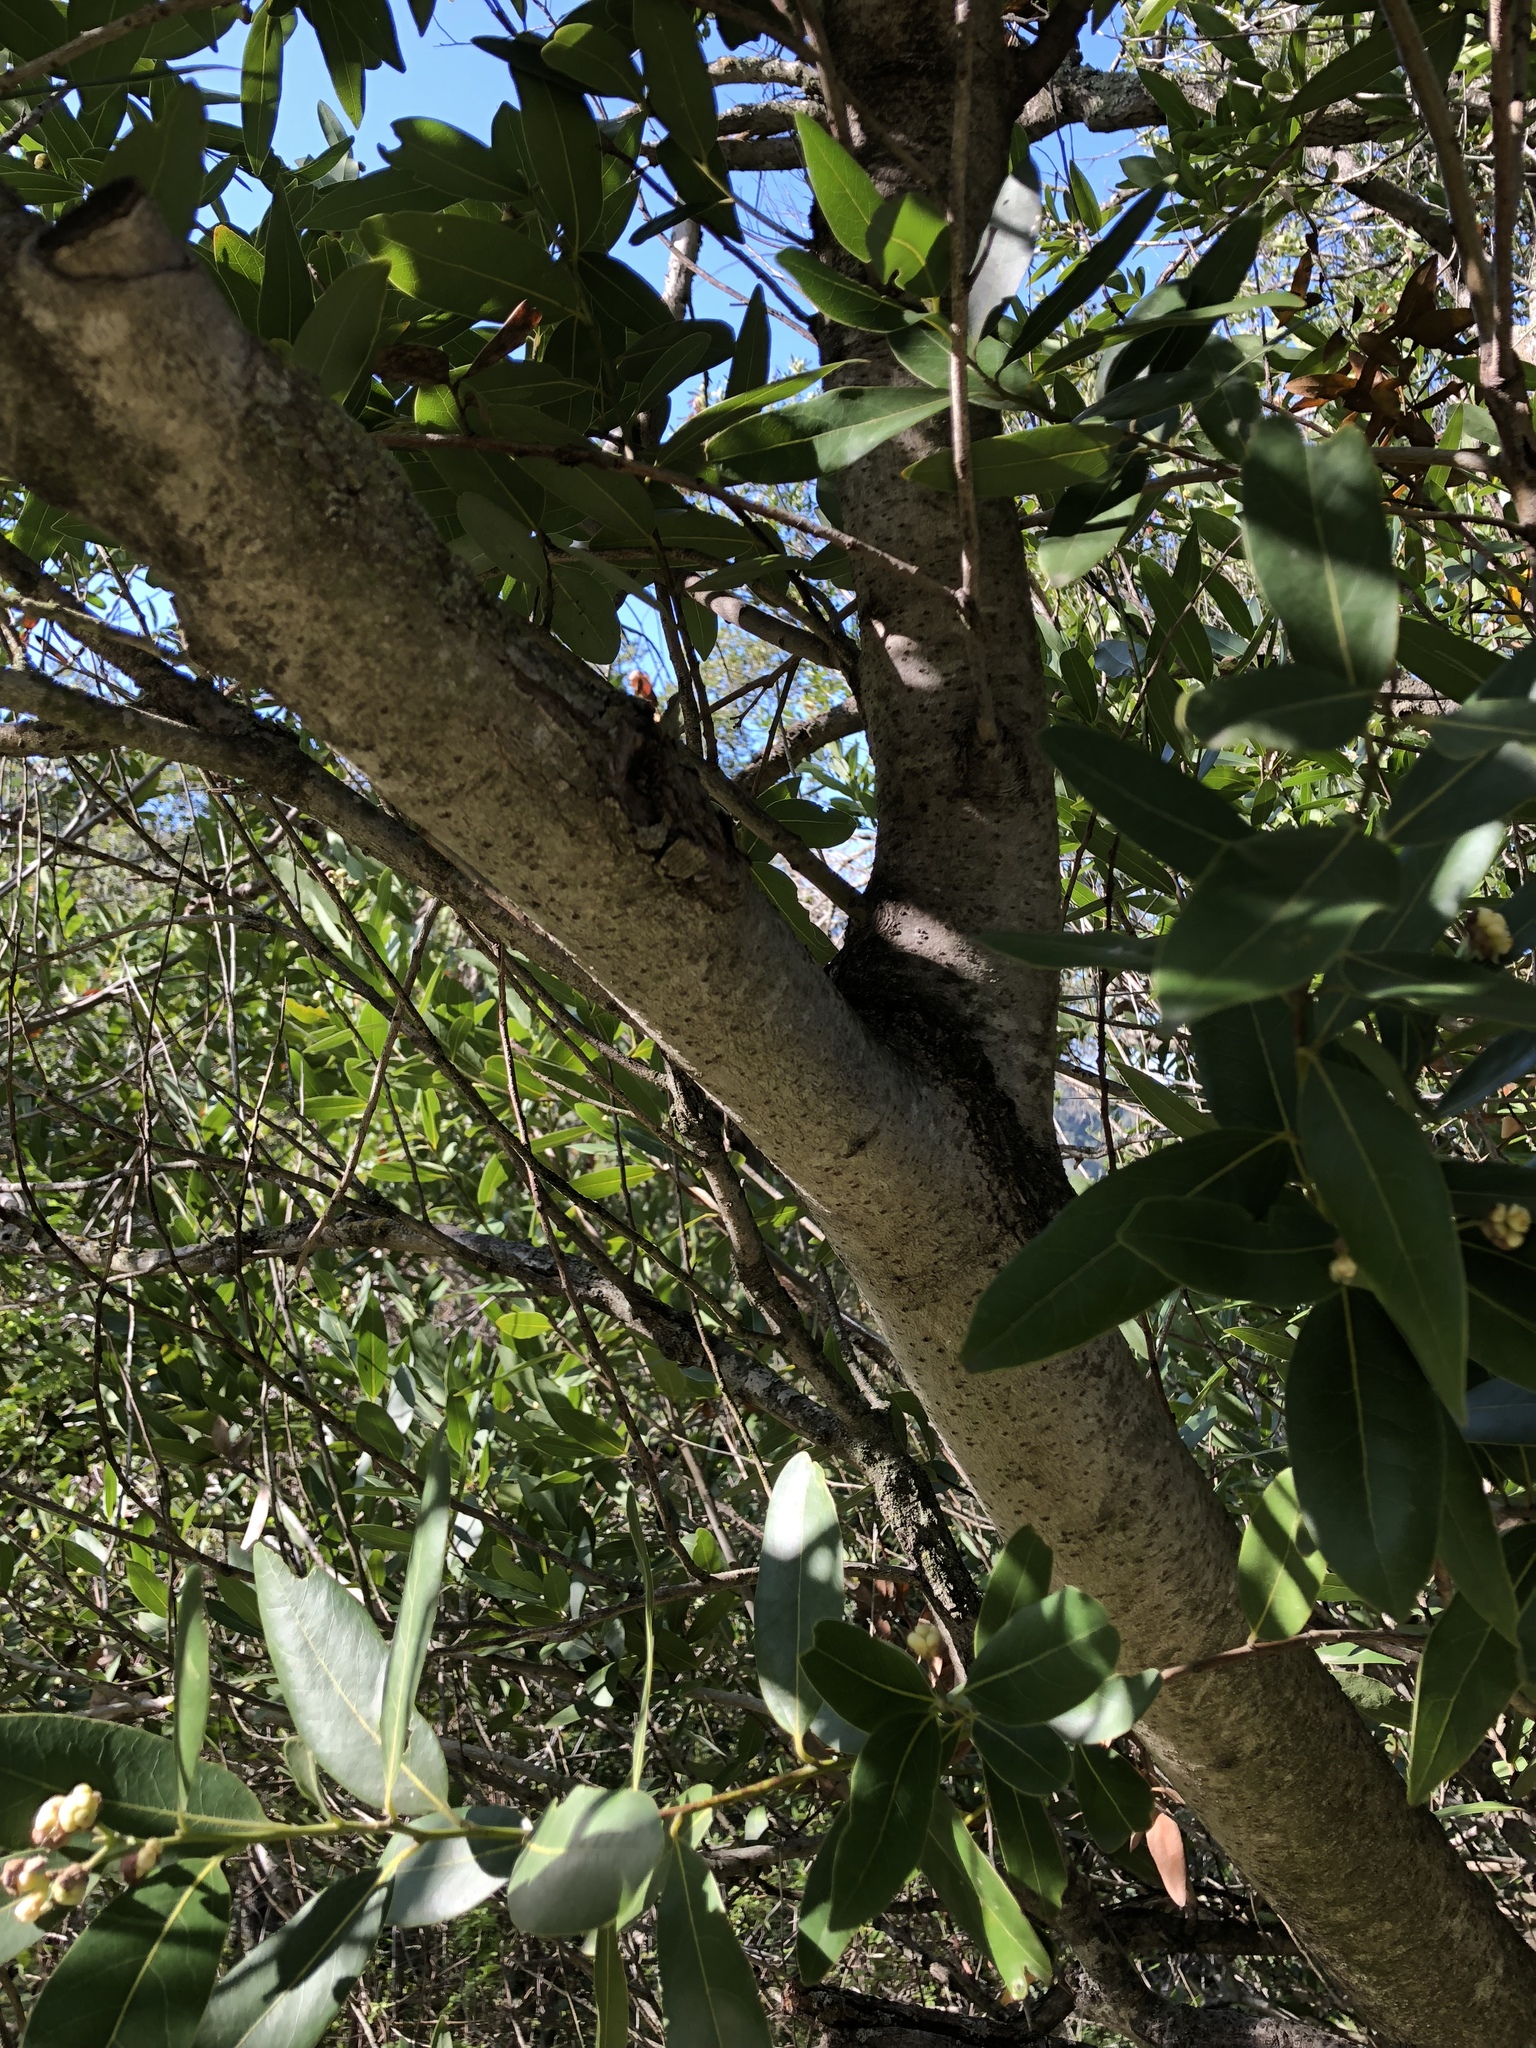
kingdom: Plantae
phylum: Tracheophyta
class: Magnoliopsida
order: Laurales
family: Lauraceae
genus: Umbellularia
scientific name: Umbellularia californica
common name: California bay
